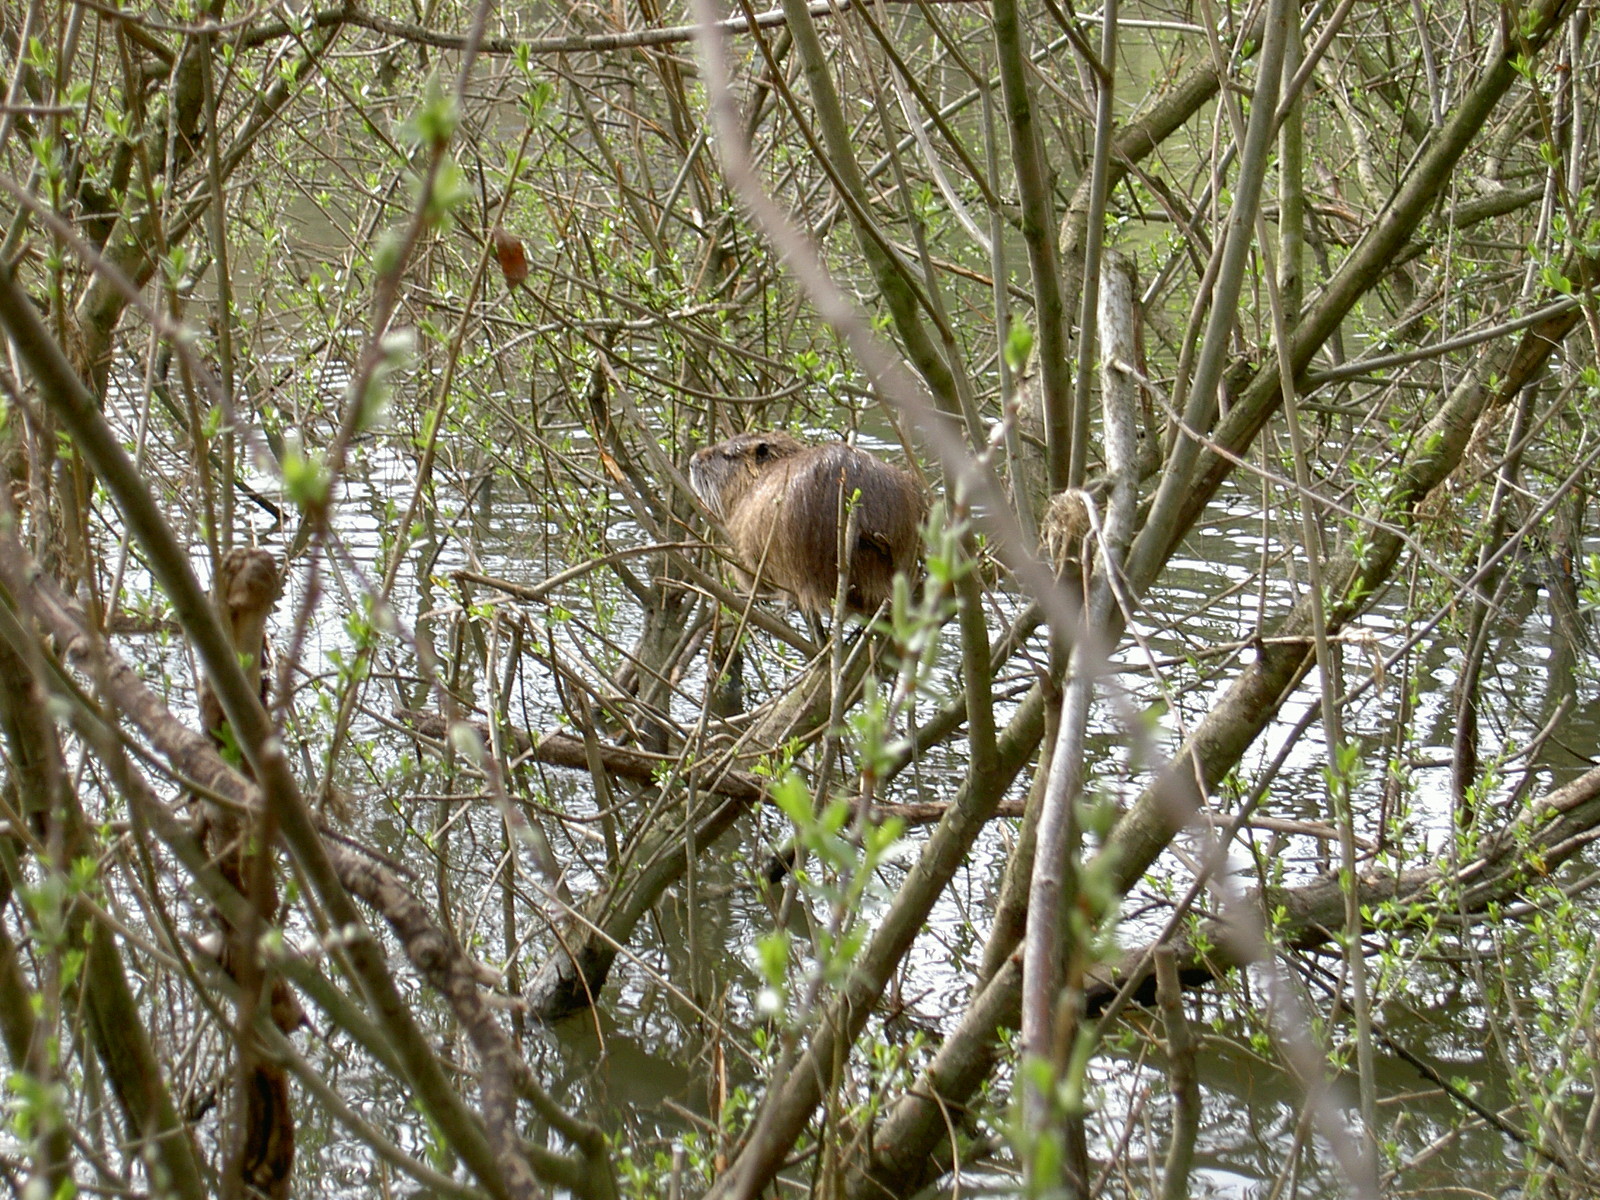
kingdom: Animalia
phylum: Chordata
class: Mammalia
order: Rodentia
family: Myocastoridae
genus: Myocastor
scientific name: Myocastor coypus
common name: Coypu
